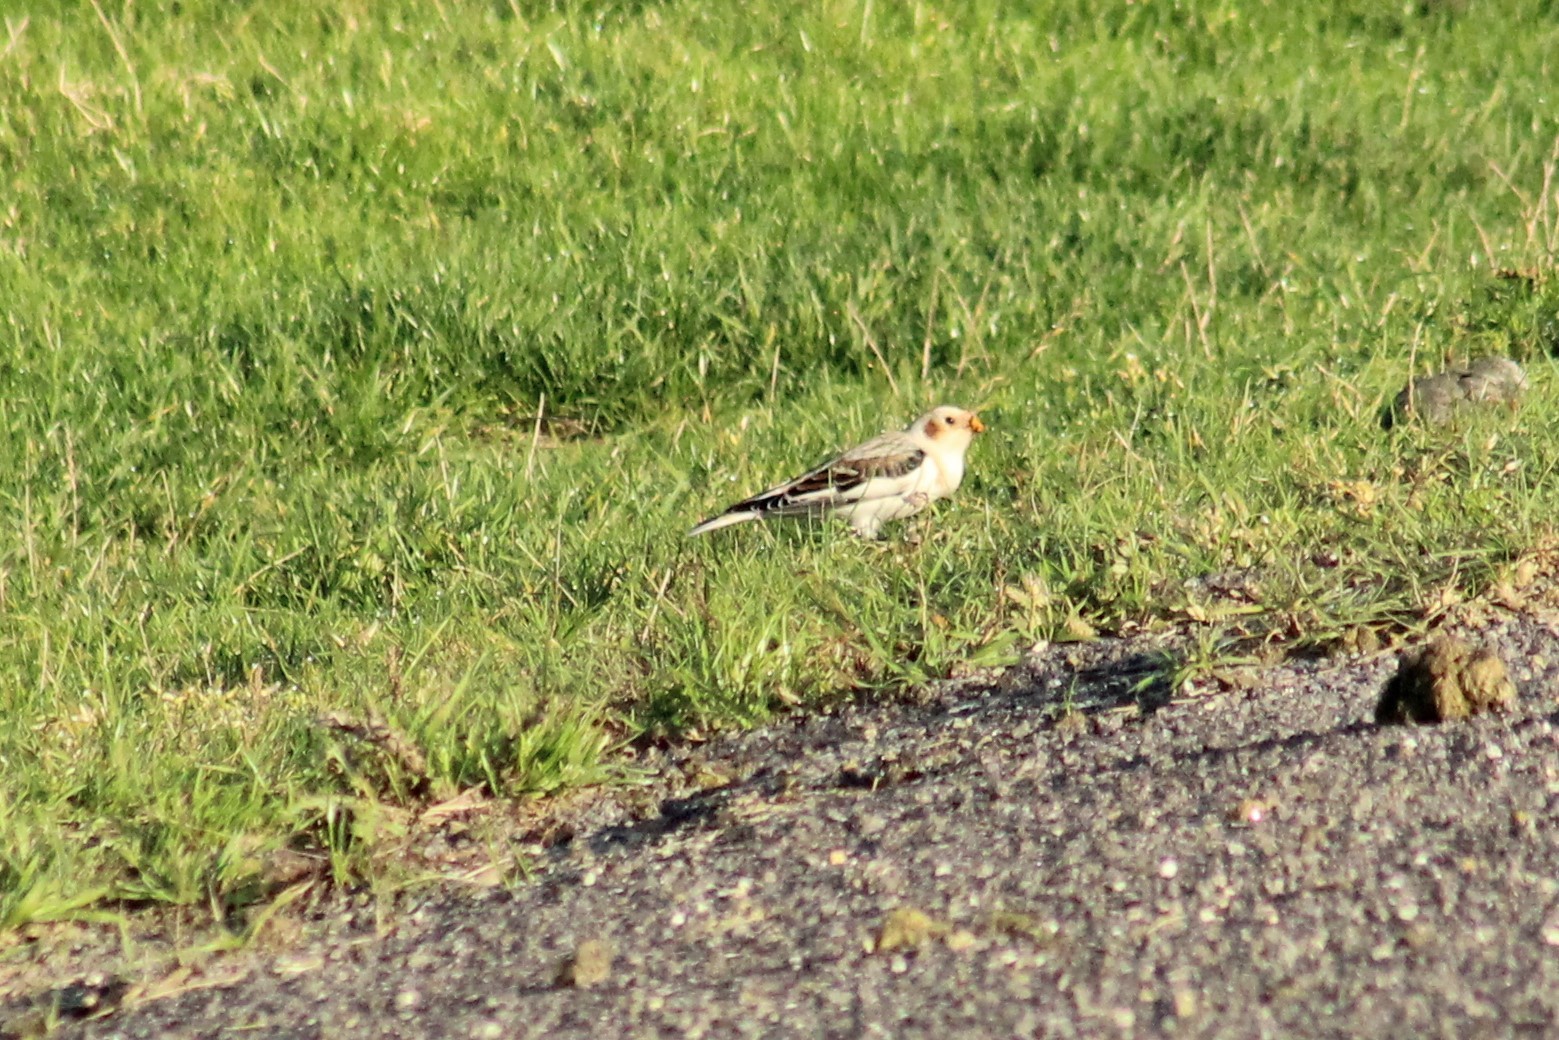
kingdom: Animalia
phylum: Chordata
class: Aves
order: Passeriformes
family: Calcariidae
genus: Plectrophenax
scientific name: Plectrophenax nivalis
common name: Snow bunting
